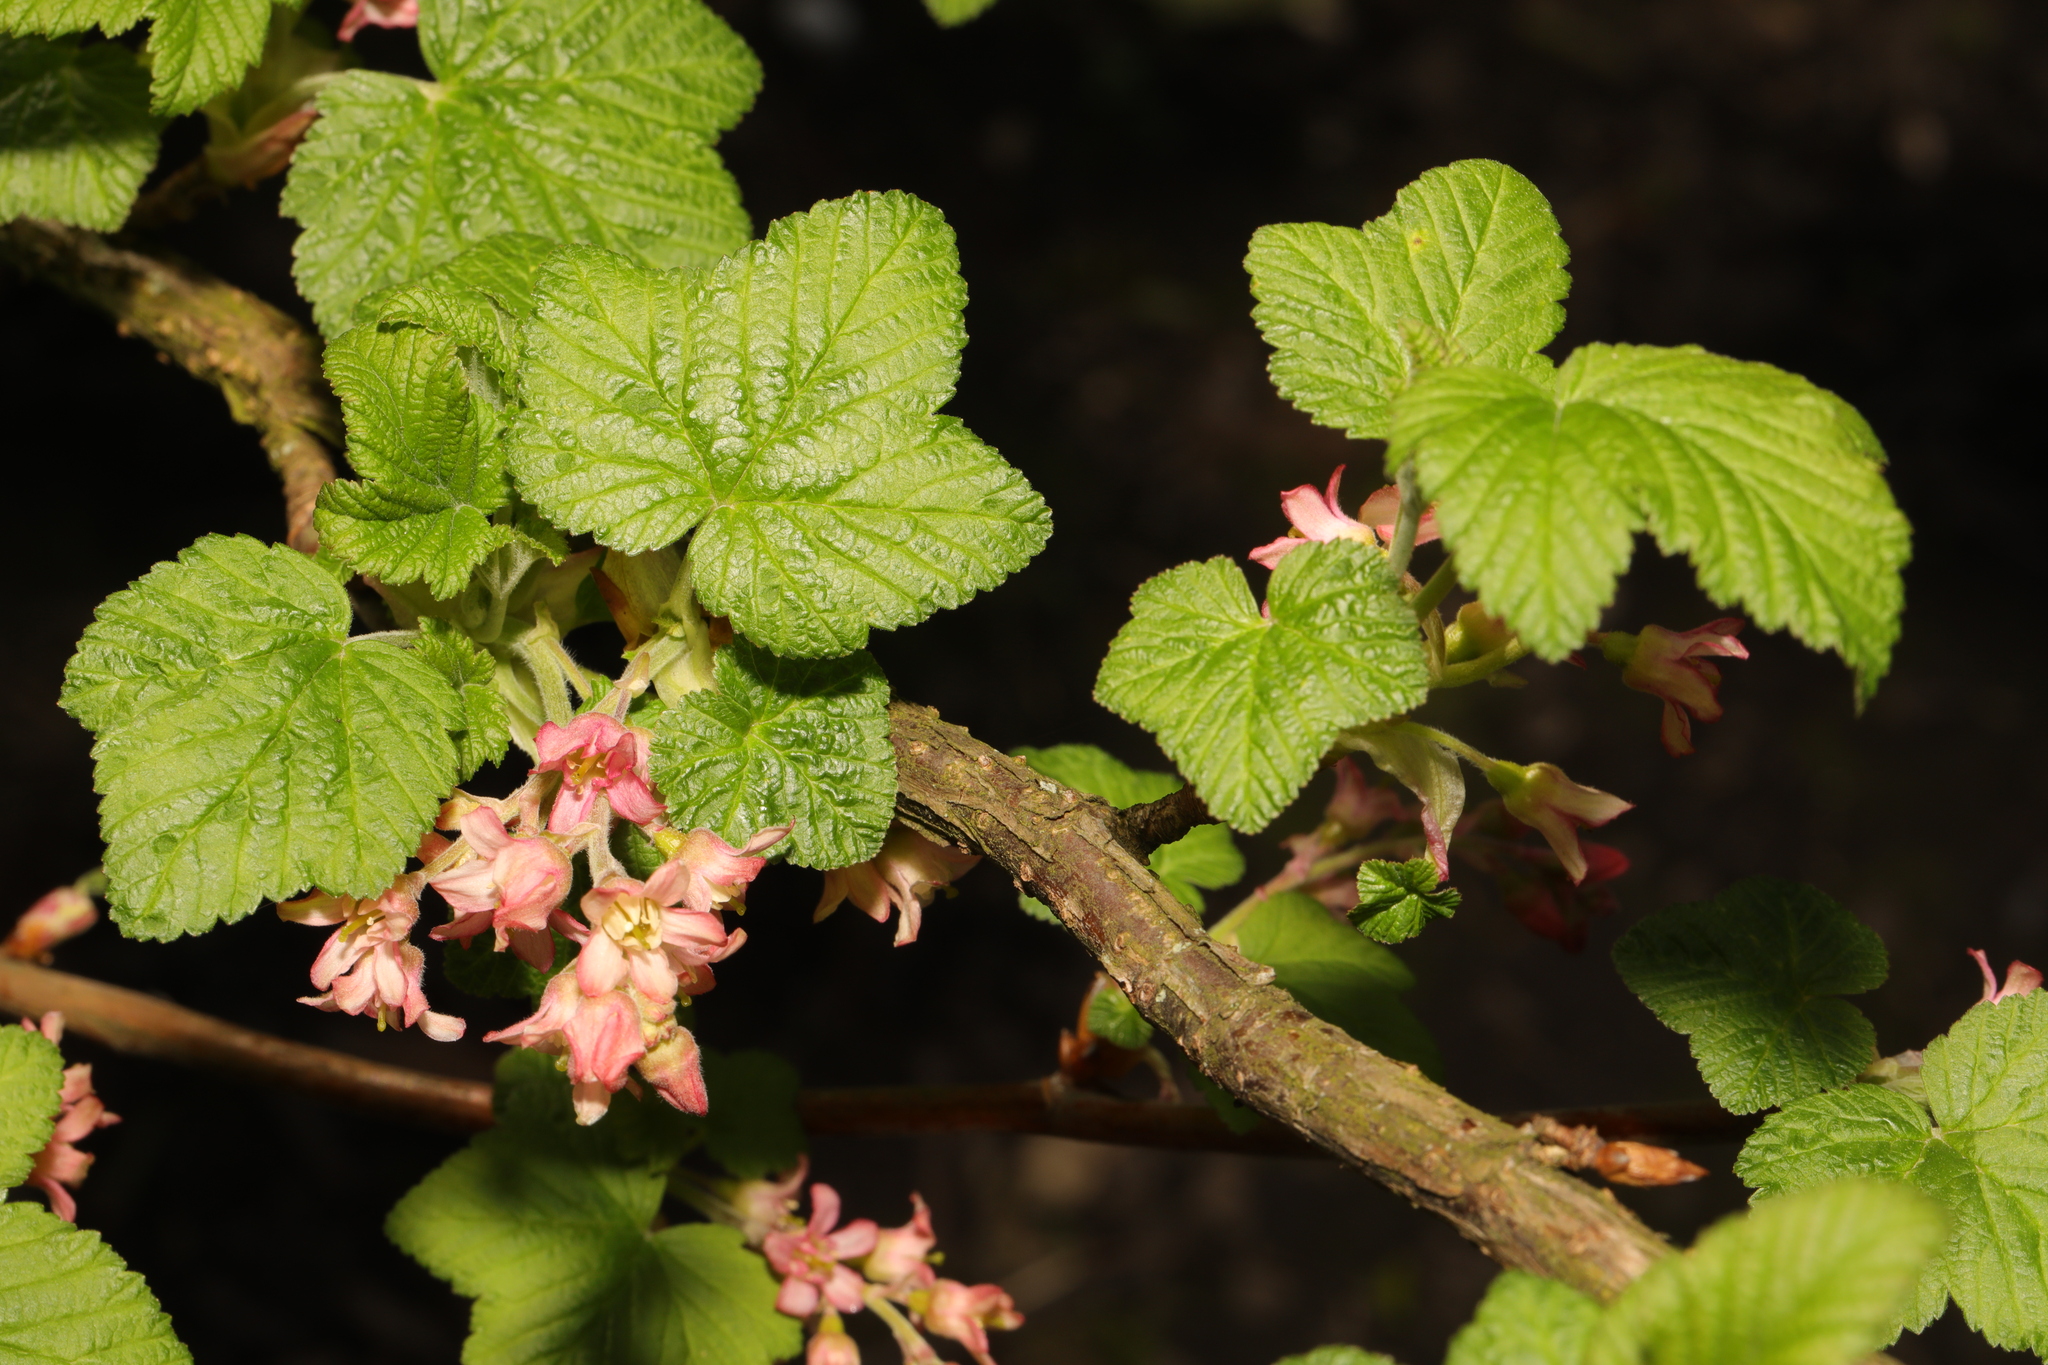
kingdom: Plantae
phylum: Tracheophyta
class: Magnoliopsida
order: Saxifragales
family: Grossulariaceae
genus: Ribes
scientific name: Ribes sanguineum
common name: Flowering currant
